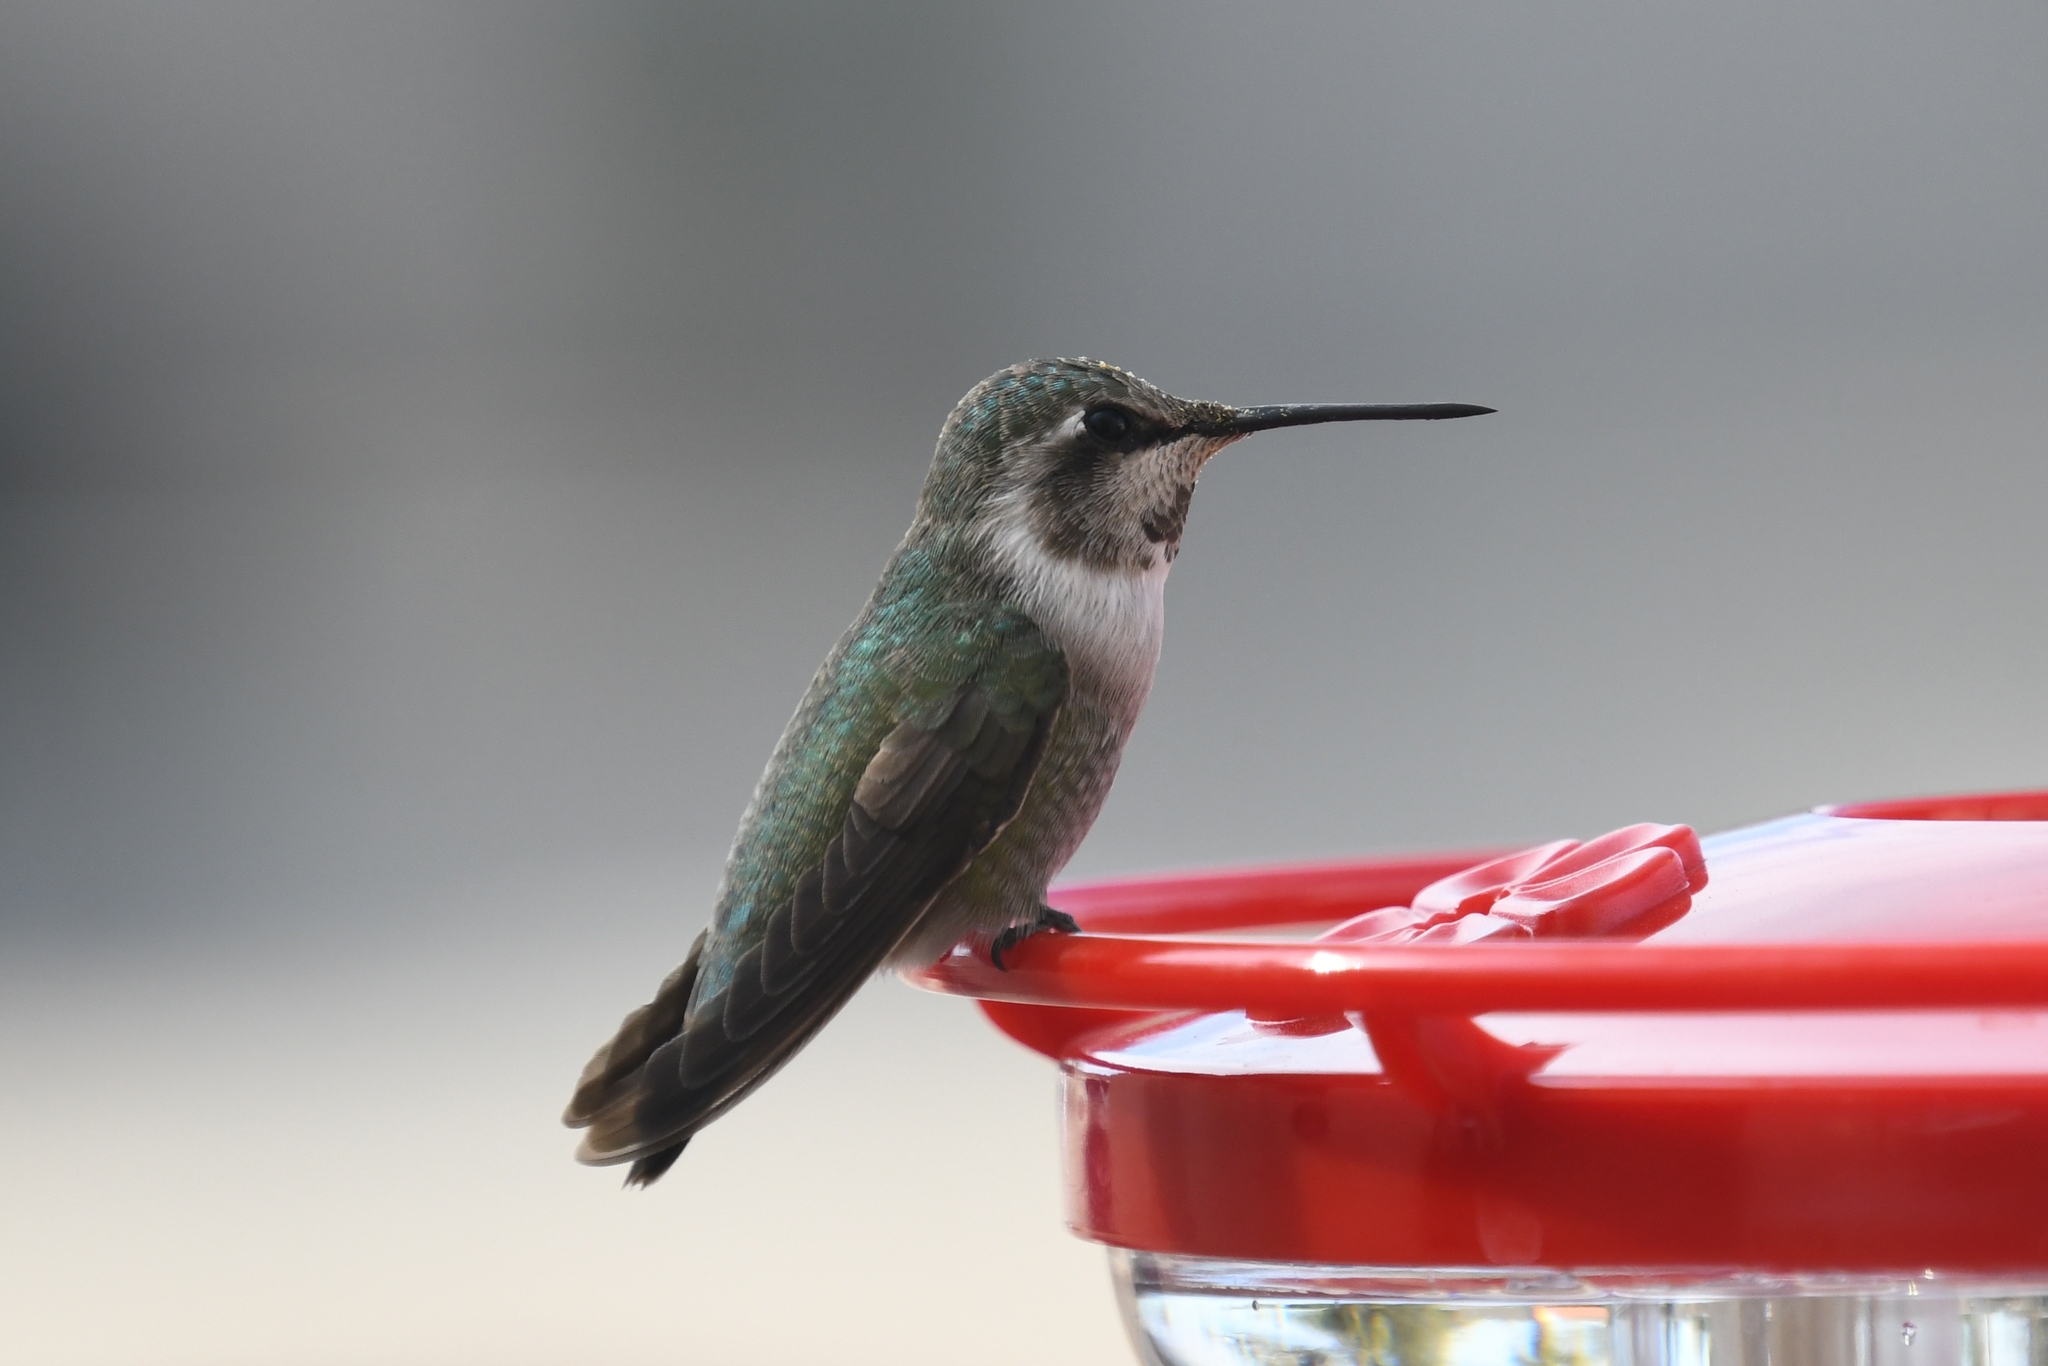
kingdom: Animalia
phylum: Chordata
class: Aves
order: Apodiformes
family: Trochilidae
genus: Calypte
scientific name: Calypte costae
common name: Costa's hummingbird
